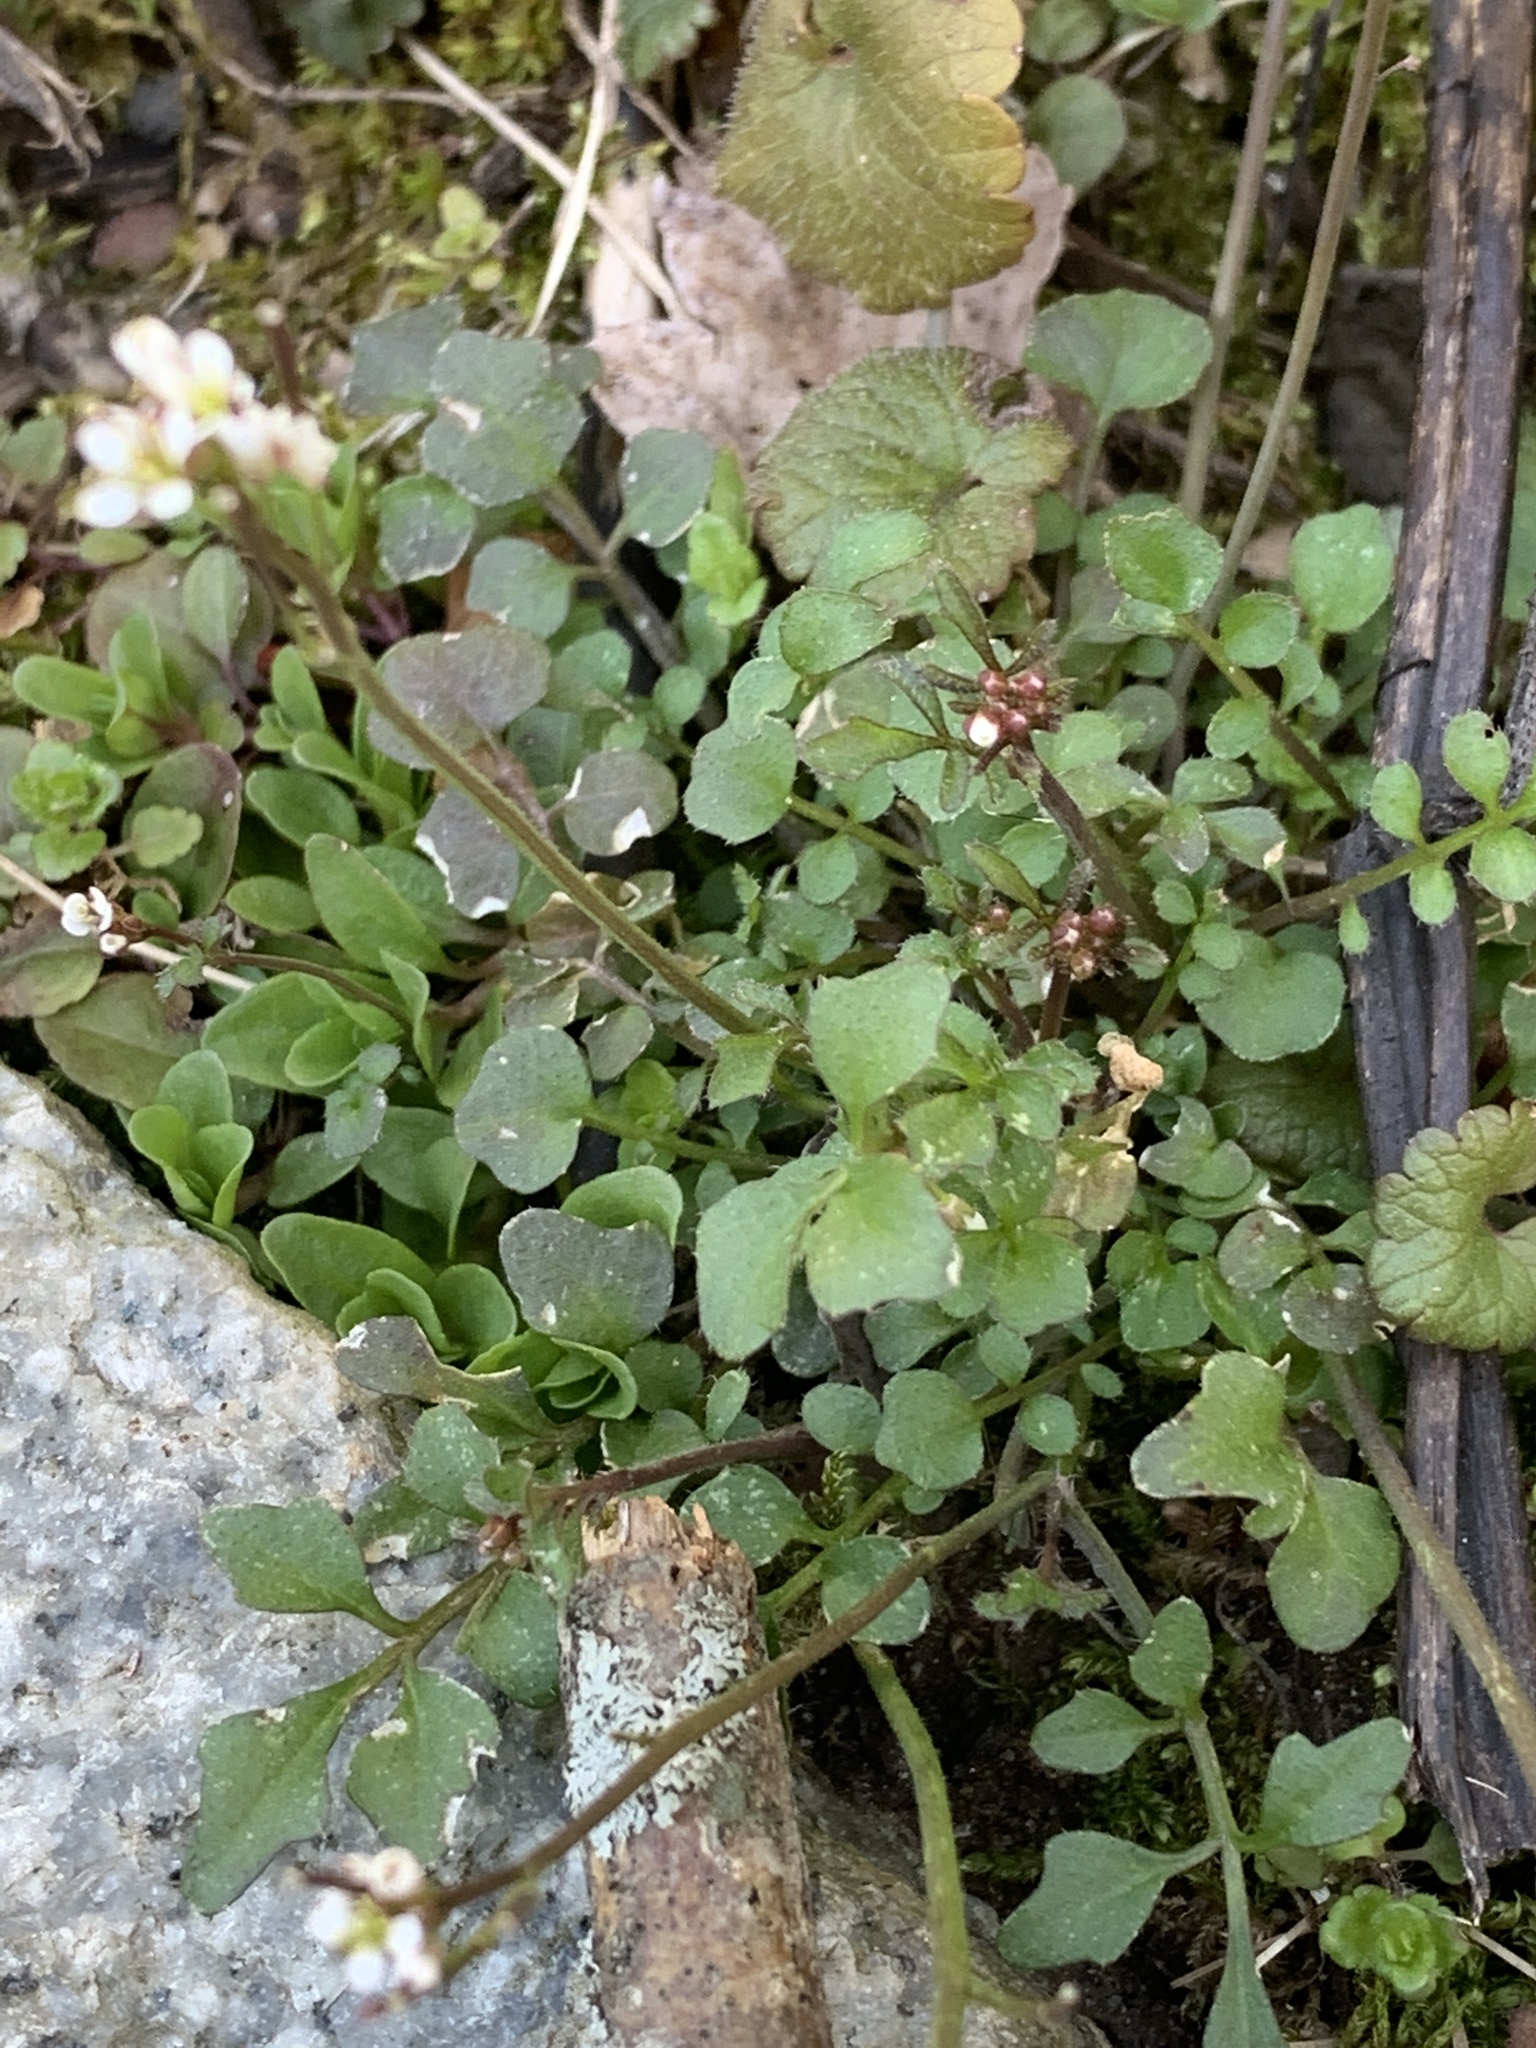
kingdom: Plantae
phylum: Tracheophyta
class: Magnoliopsida
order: Brassicales
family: Brassicaceae
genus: Cardamine
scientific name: Cardamine hirsuta
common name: Hairy bittercress
